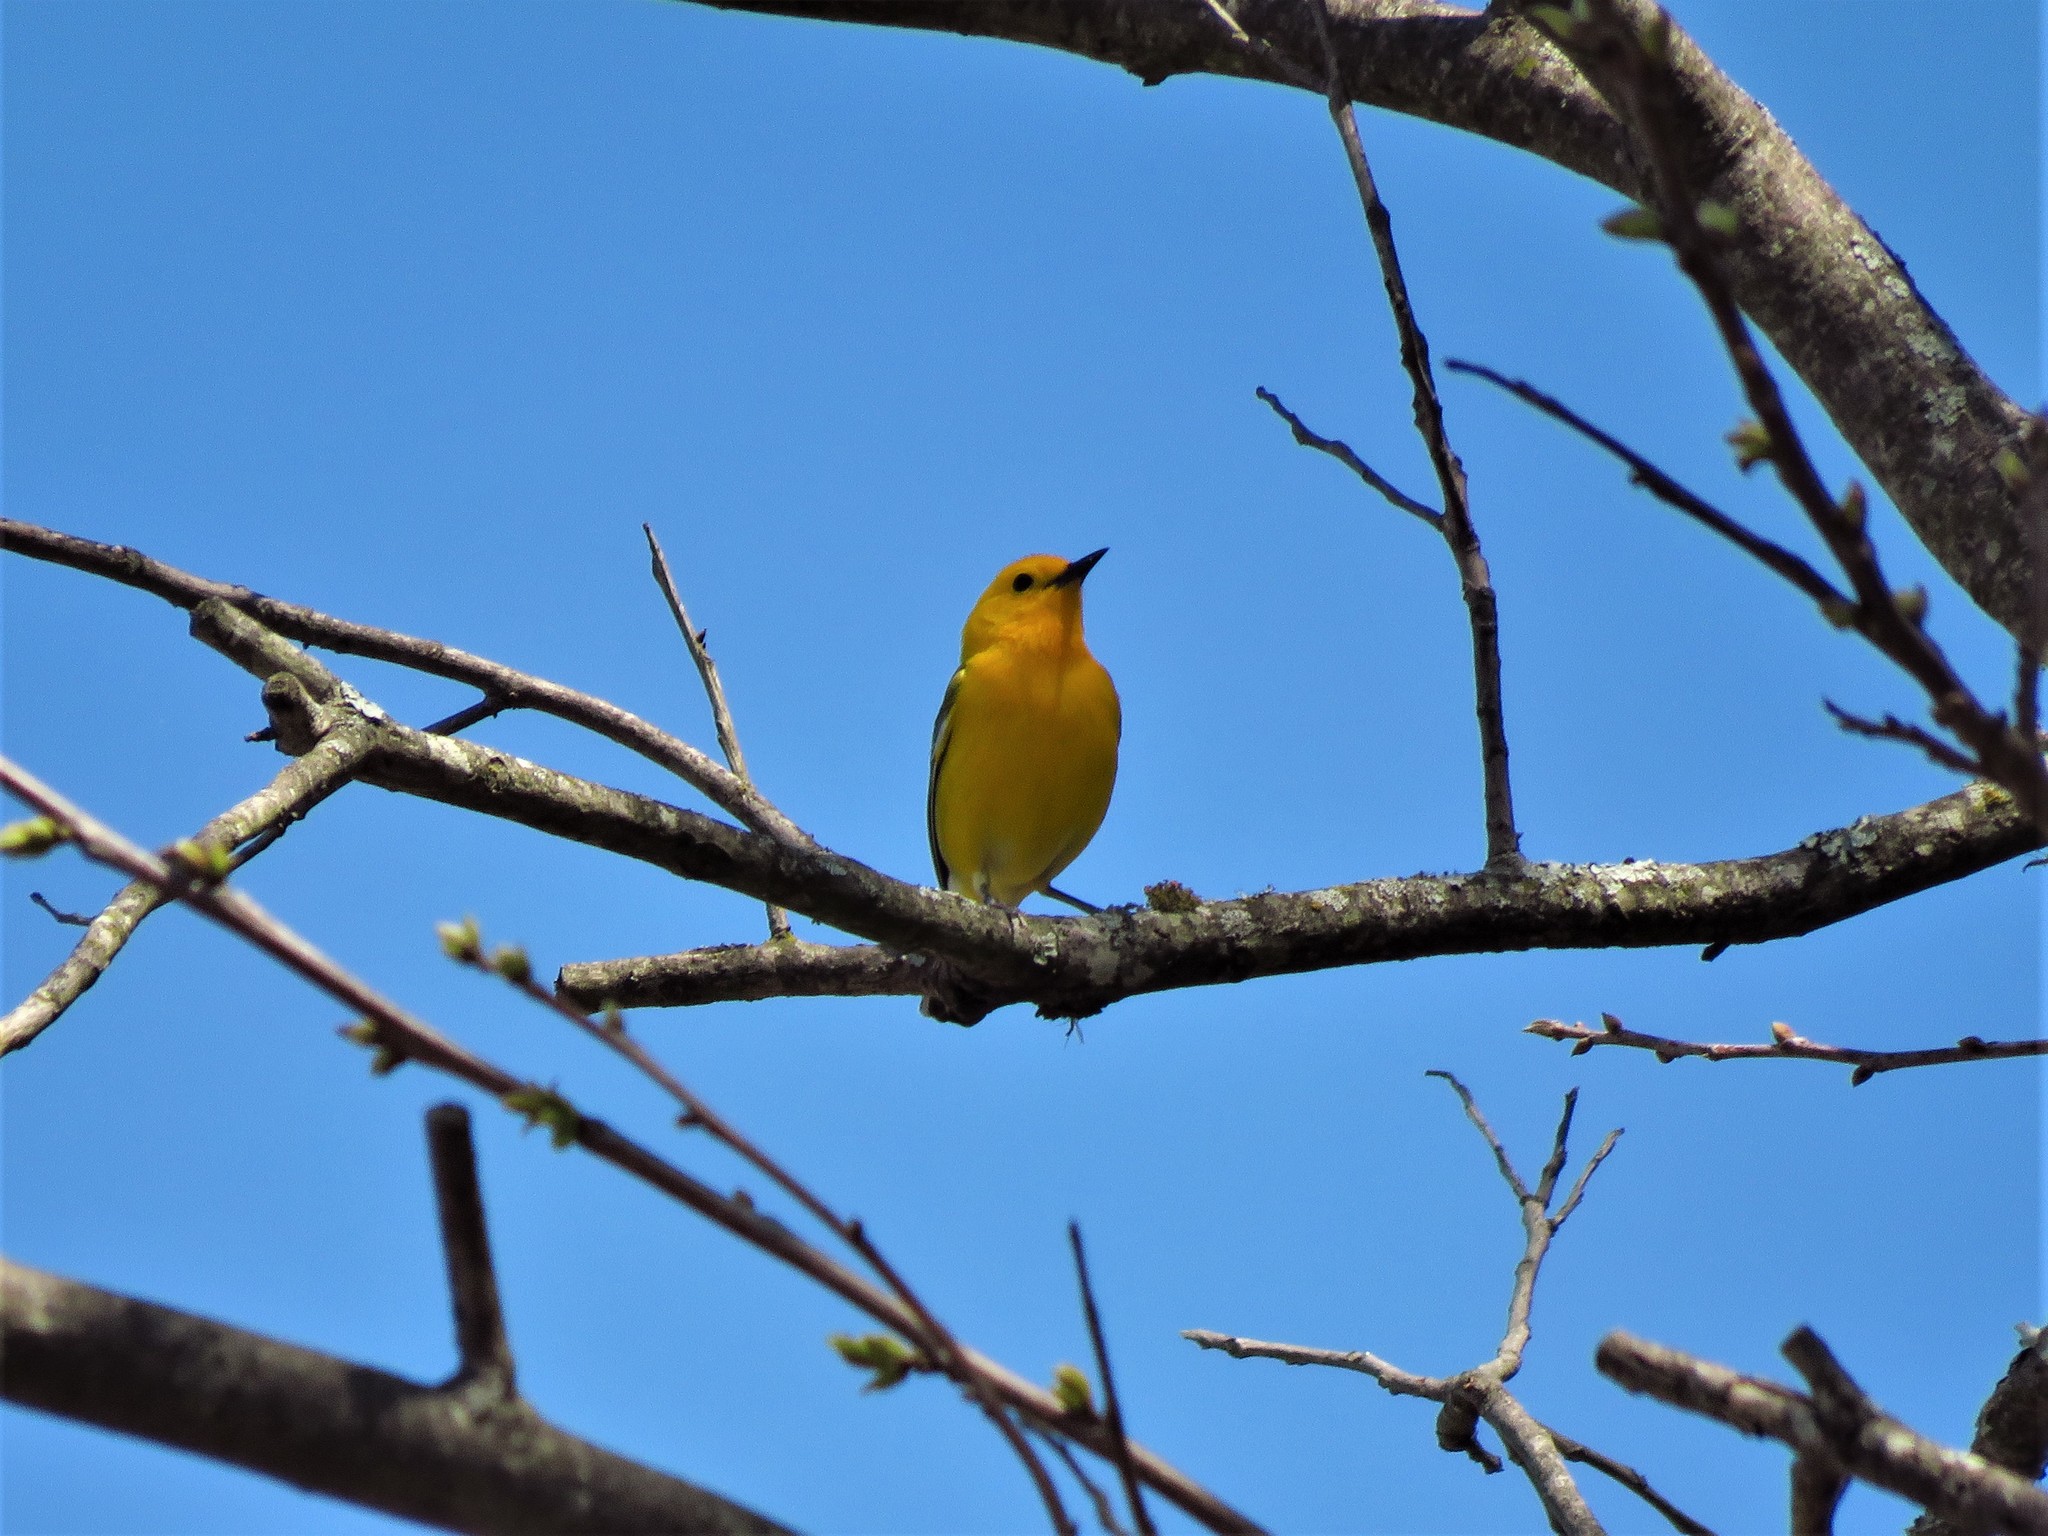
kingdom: Animalia
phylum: Chordata
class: Aves
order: Passeriformes
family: Parulidae
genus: Protonotaria
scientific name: Protonotaria citrea
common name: Prothonotary warbler
